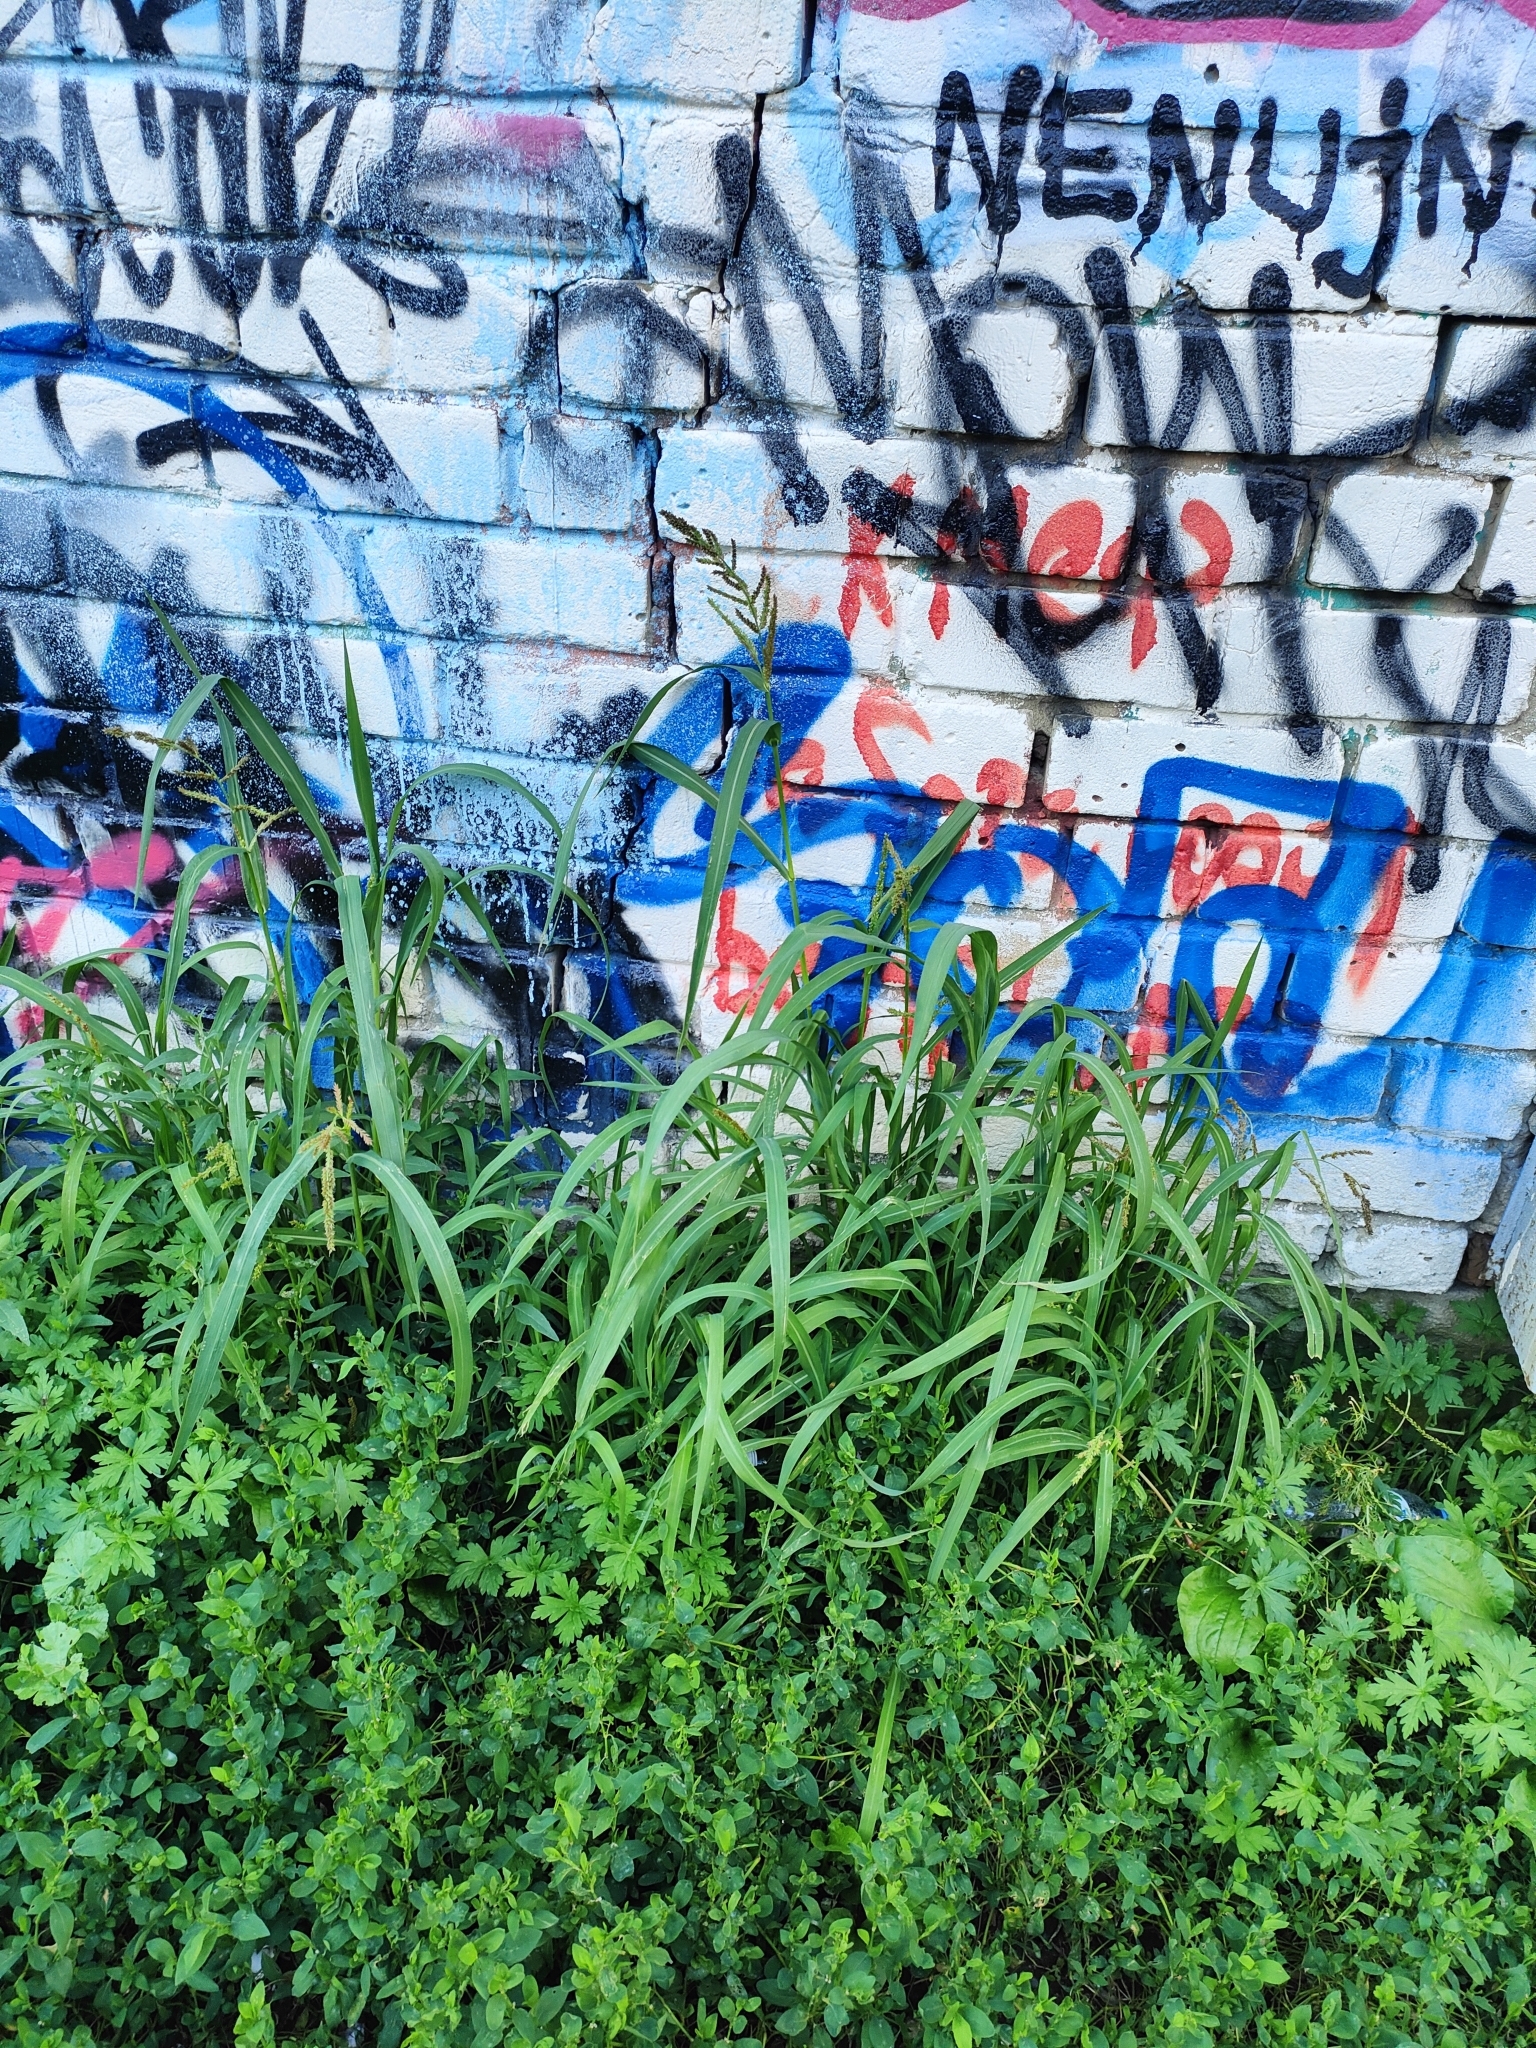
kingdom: Plantae
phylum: Tracheophyta
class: Liliopsida
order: Poales
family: Poaceae
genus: Echinochloa
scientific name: Echinochloa crus-galli
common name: Cockspur
